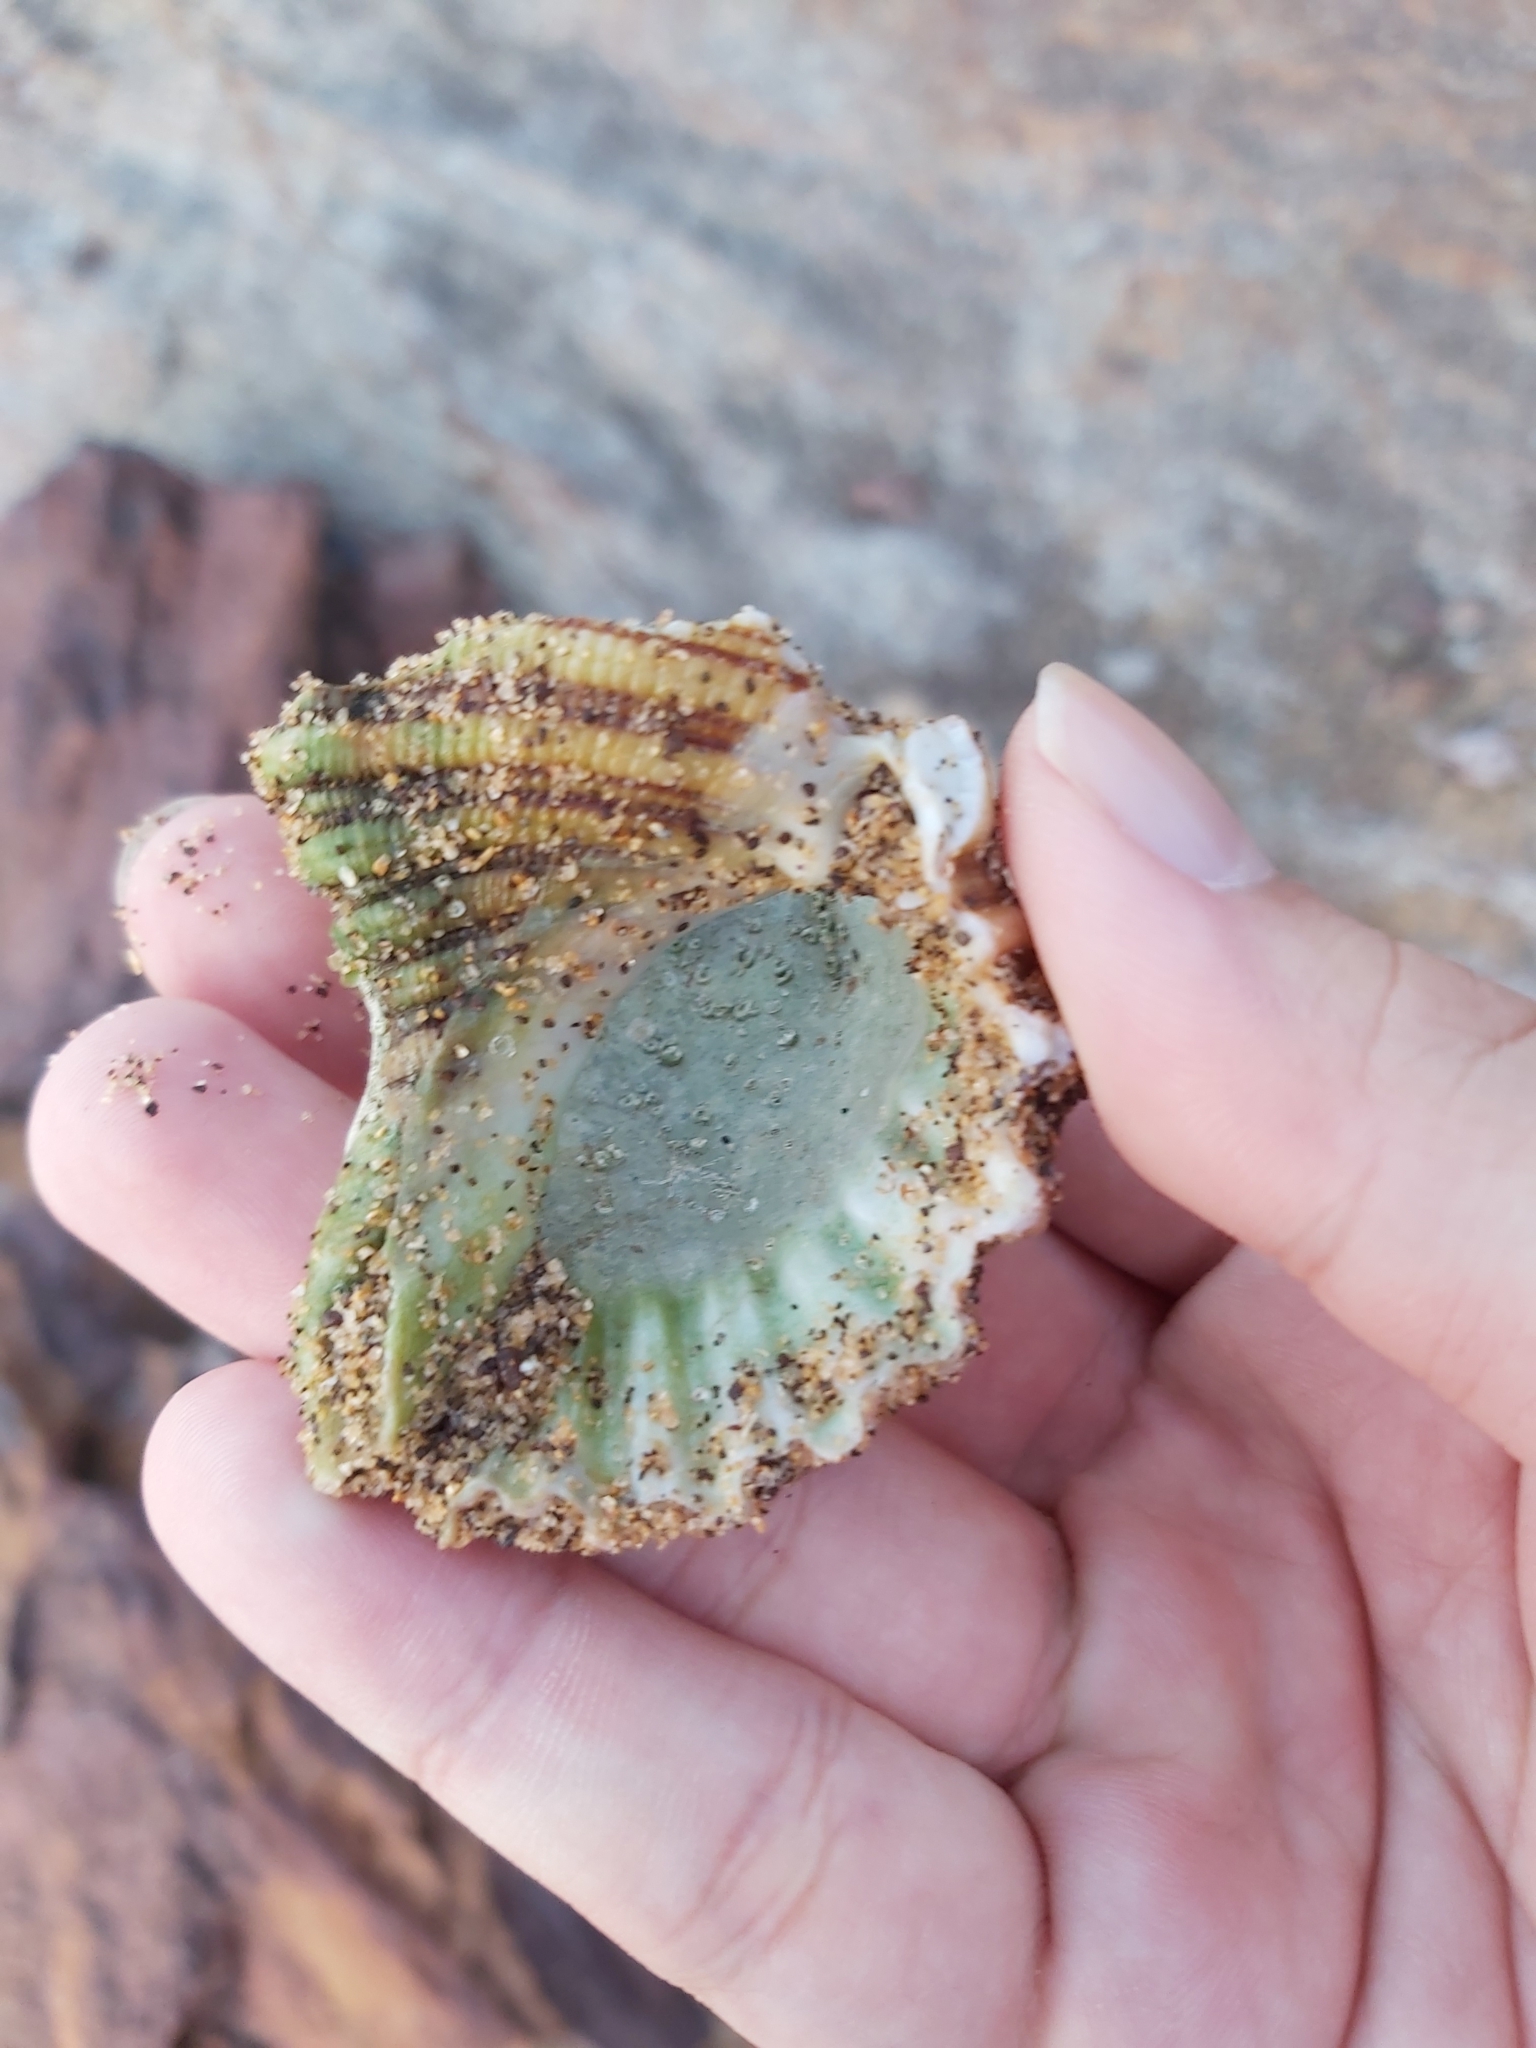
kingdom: Animalia
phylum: Mollusca
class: Gastropoda
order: Littorinimorpha
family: Cymatiidae
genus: Cabestana
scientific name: Cabestana spengleri
